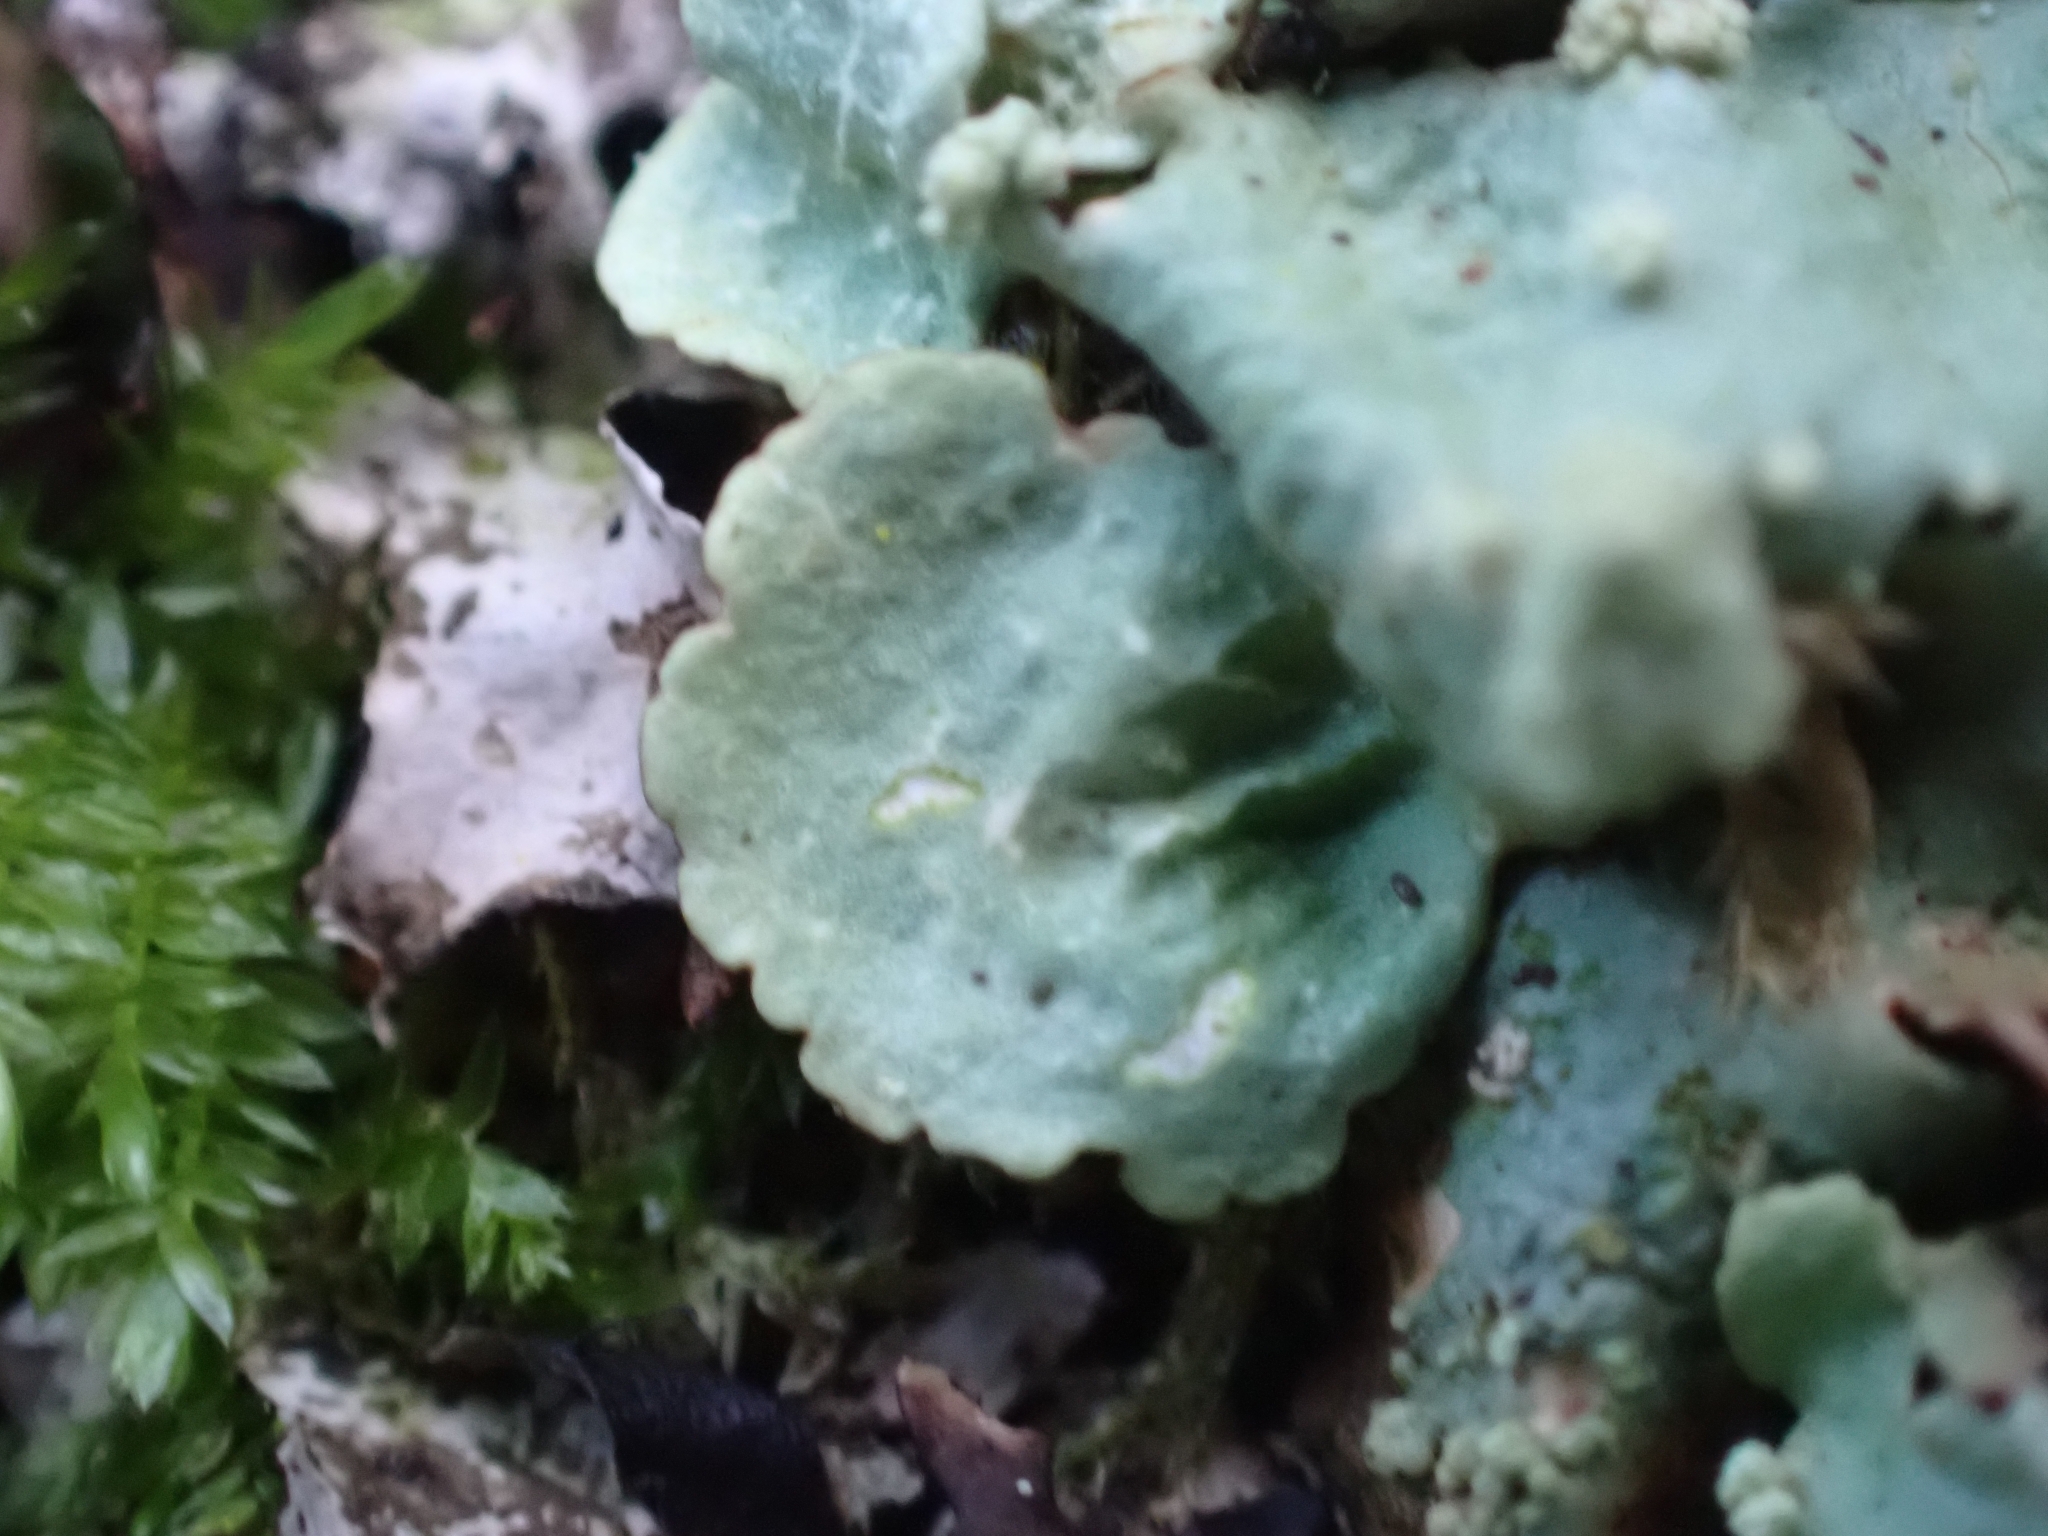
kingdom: Fungi
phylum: Ascomycota
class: Lecanoromycetes
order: Lecanorales
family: Parmeliaceae
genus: Flavoparmelia
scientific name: Flavoparmelia caperata
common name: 40-mile per hour lichen
